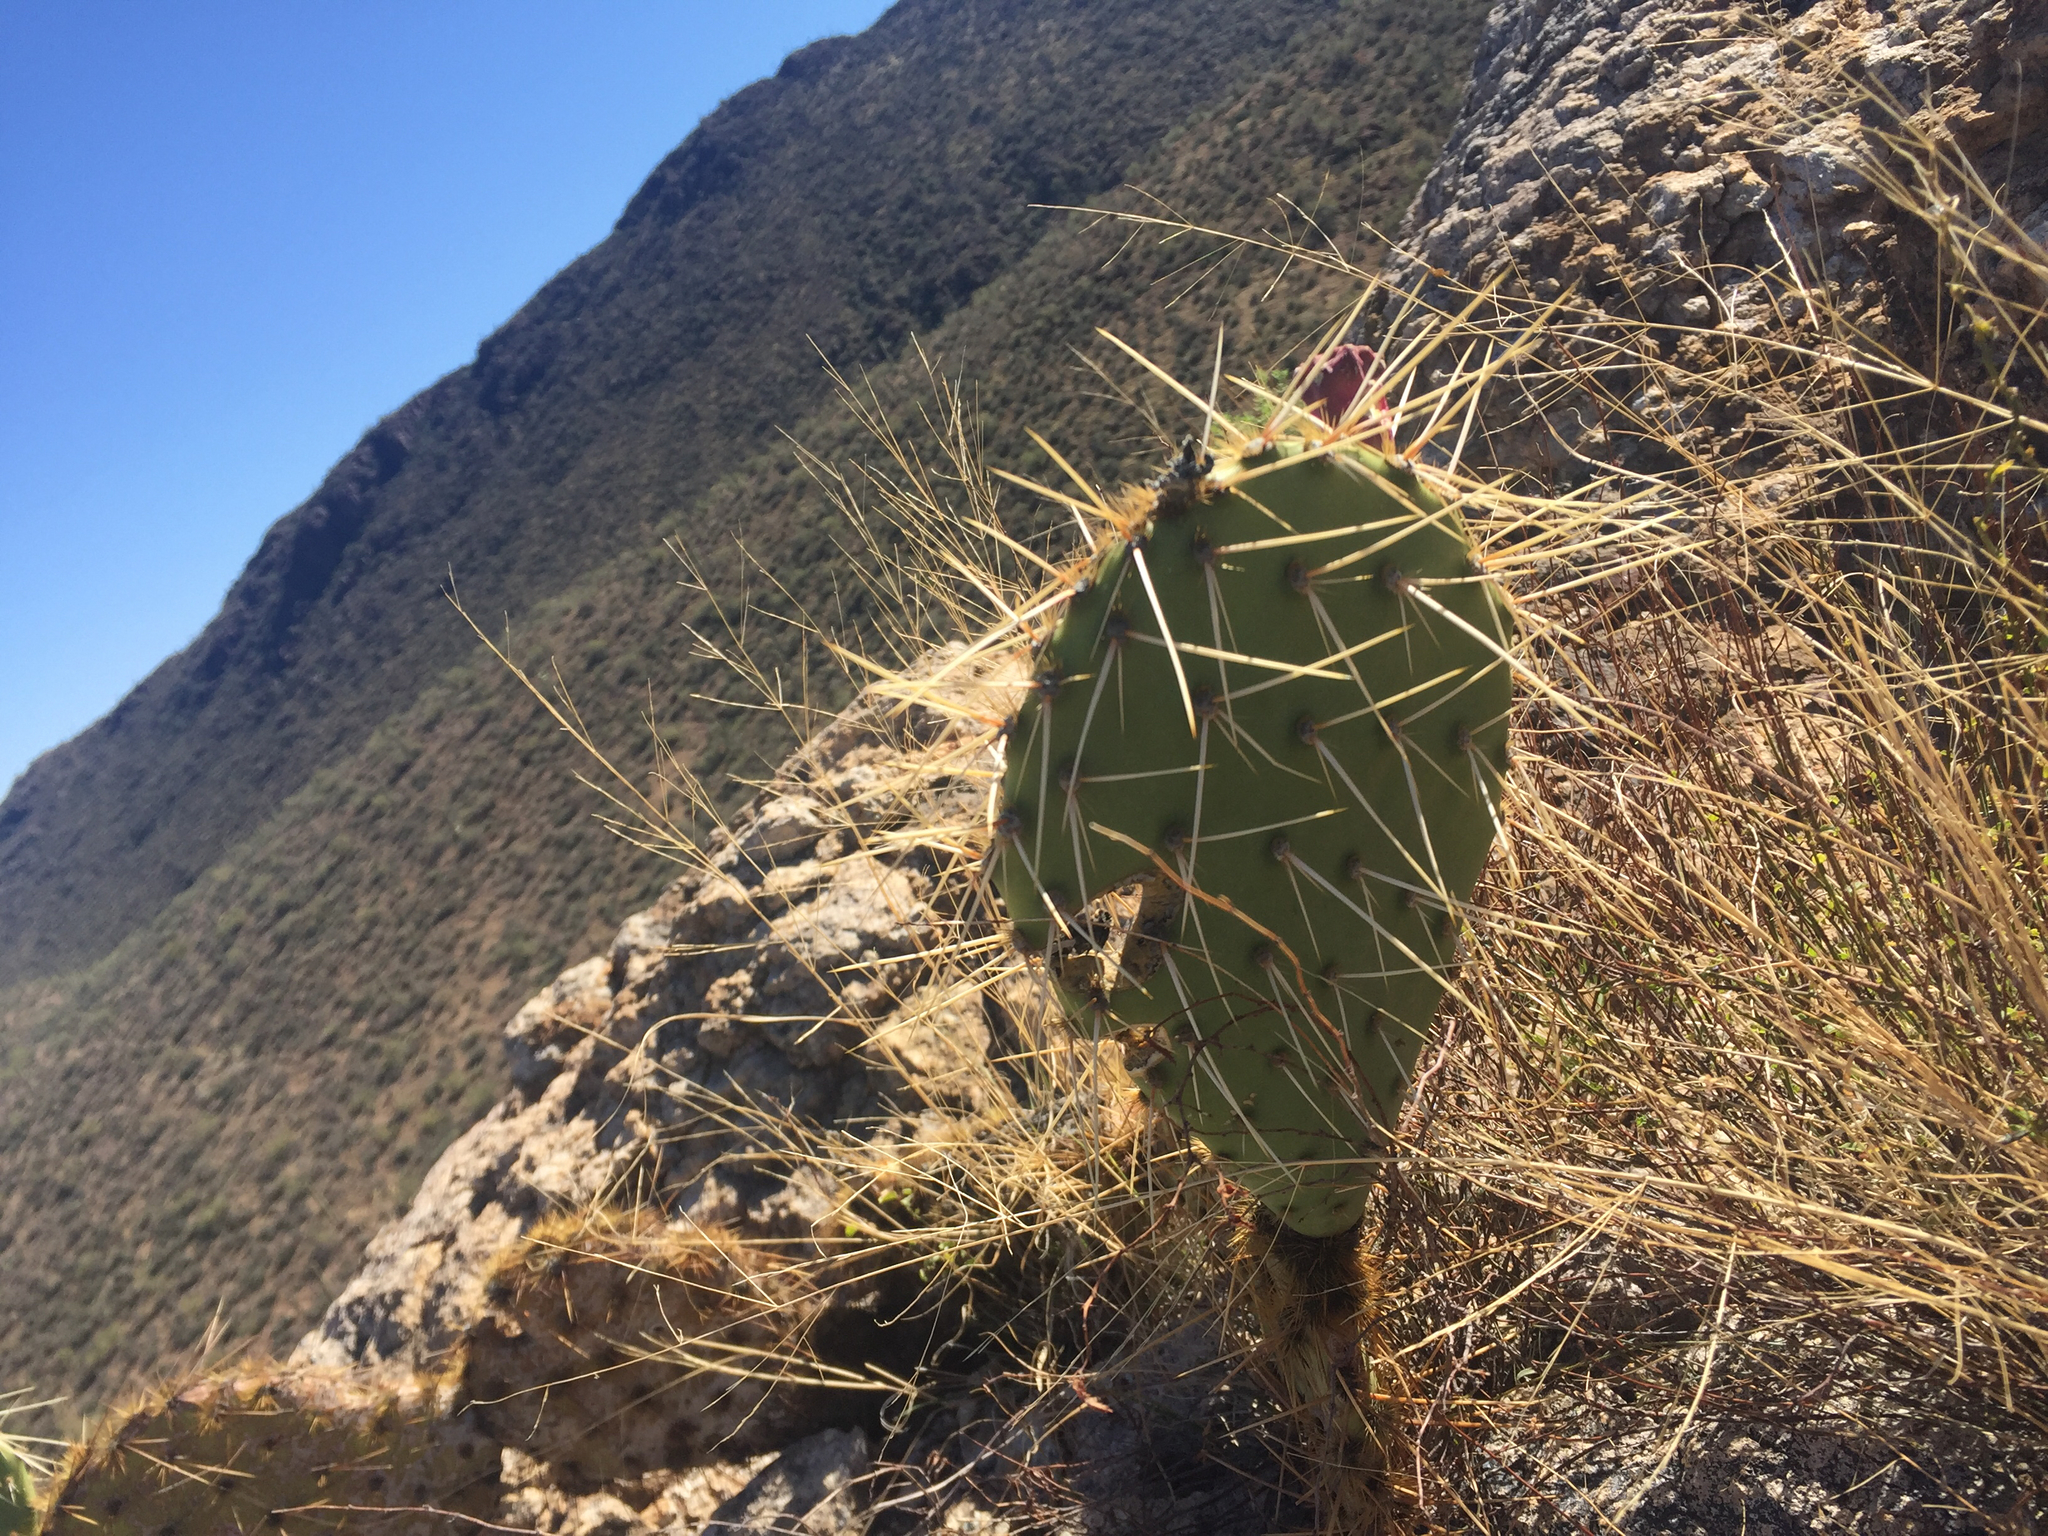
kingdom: Plantae
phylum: Tracheophyta
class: Magnoliopsida
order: Caryophyllales
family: Cactaceae
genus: Opuntia
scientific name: Opuntia engelmannii
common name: Cactus-apple
